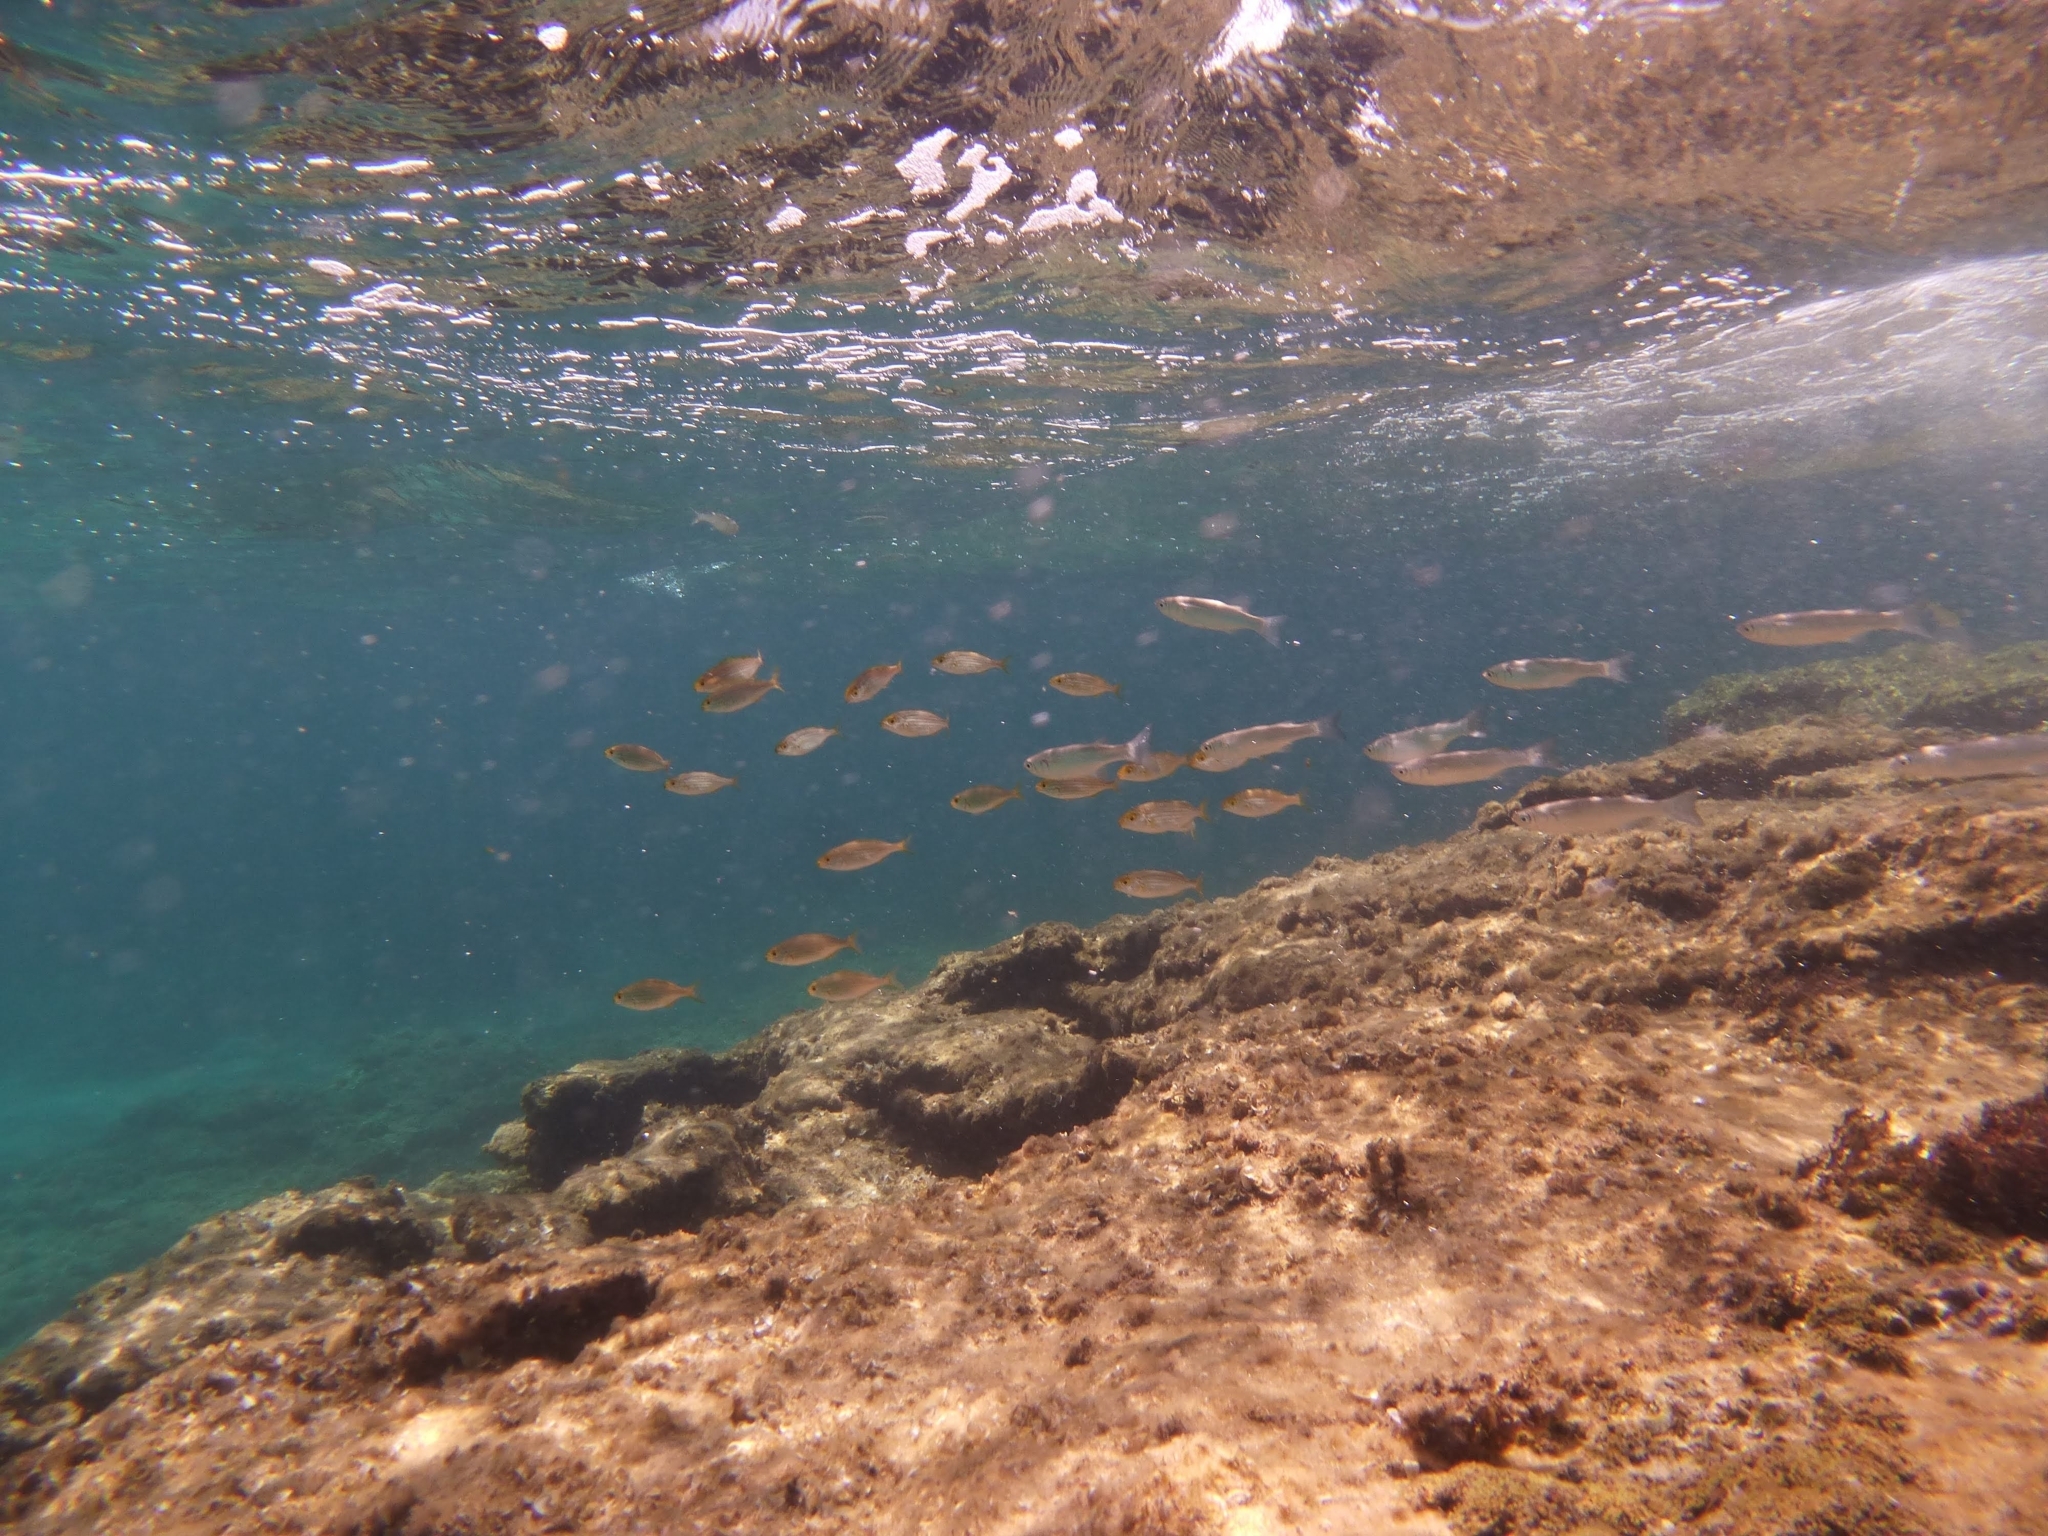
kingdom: Animalia
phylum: Chordata
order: Perciformes
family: Sparidae
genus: Sarpa
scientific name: Sarpa salpa
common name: Salema
